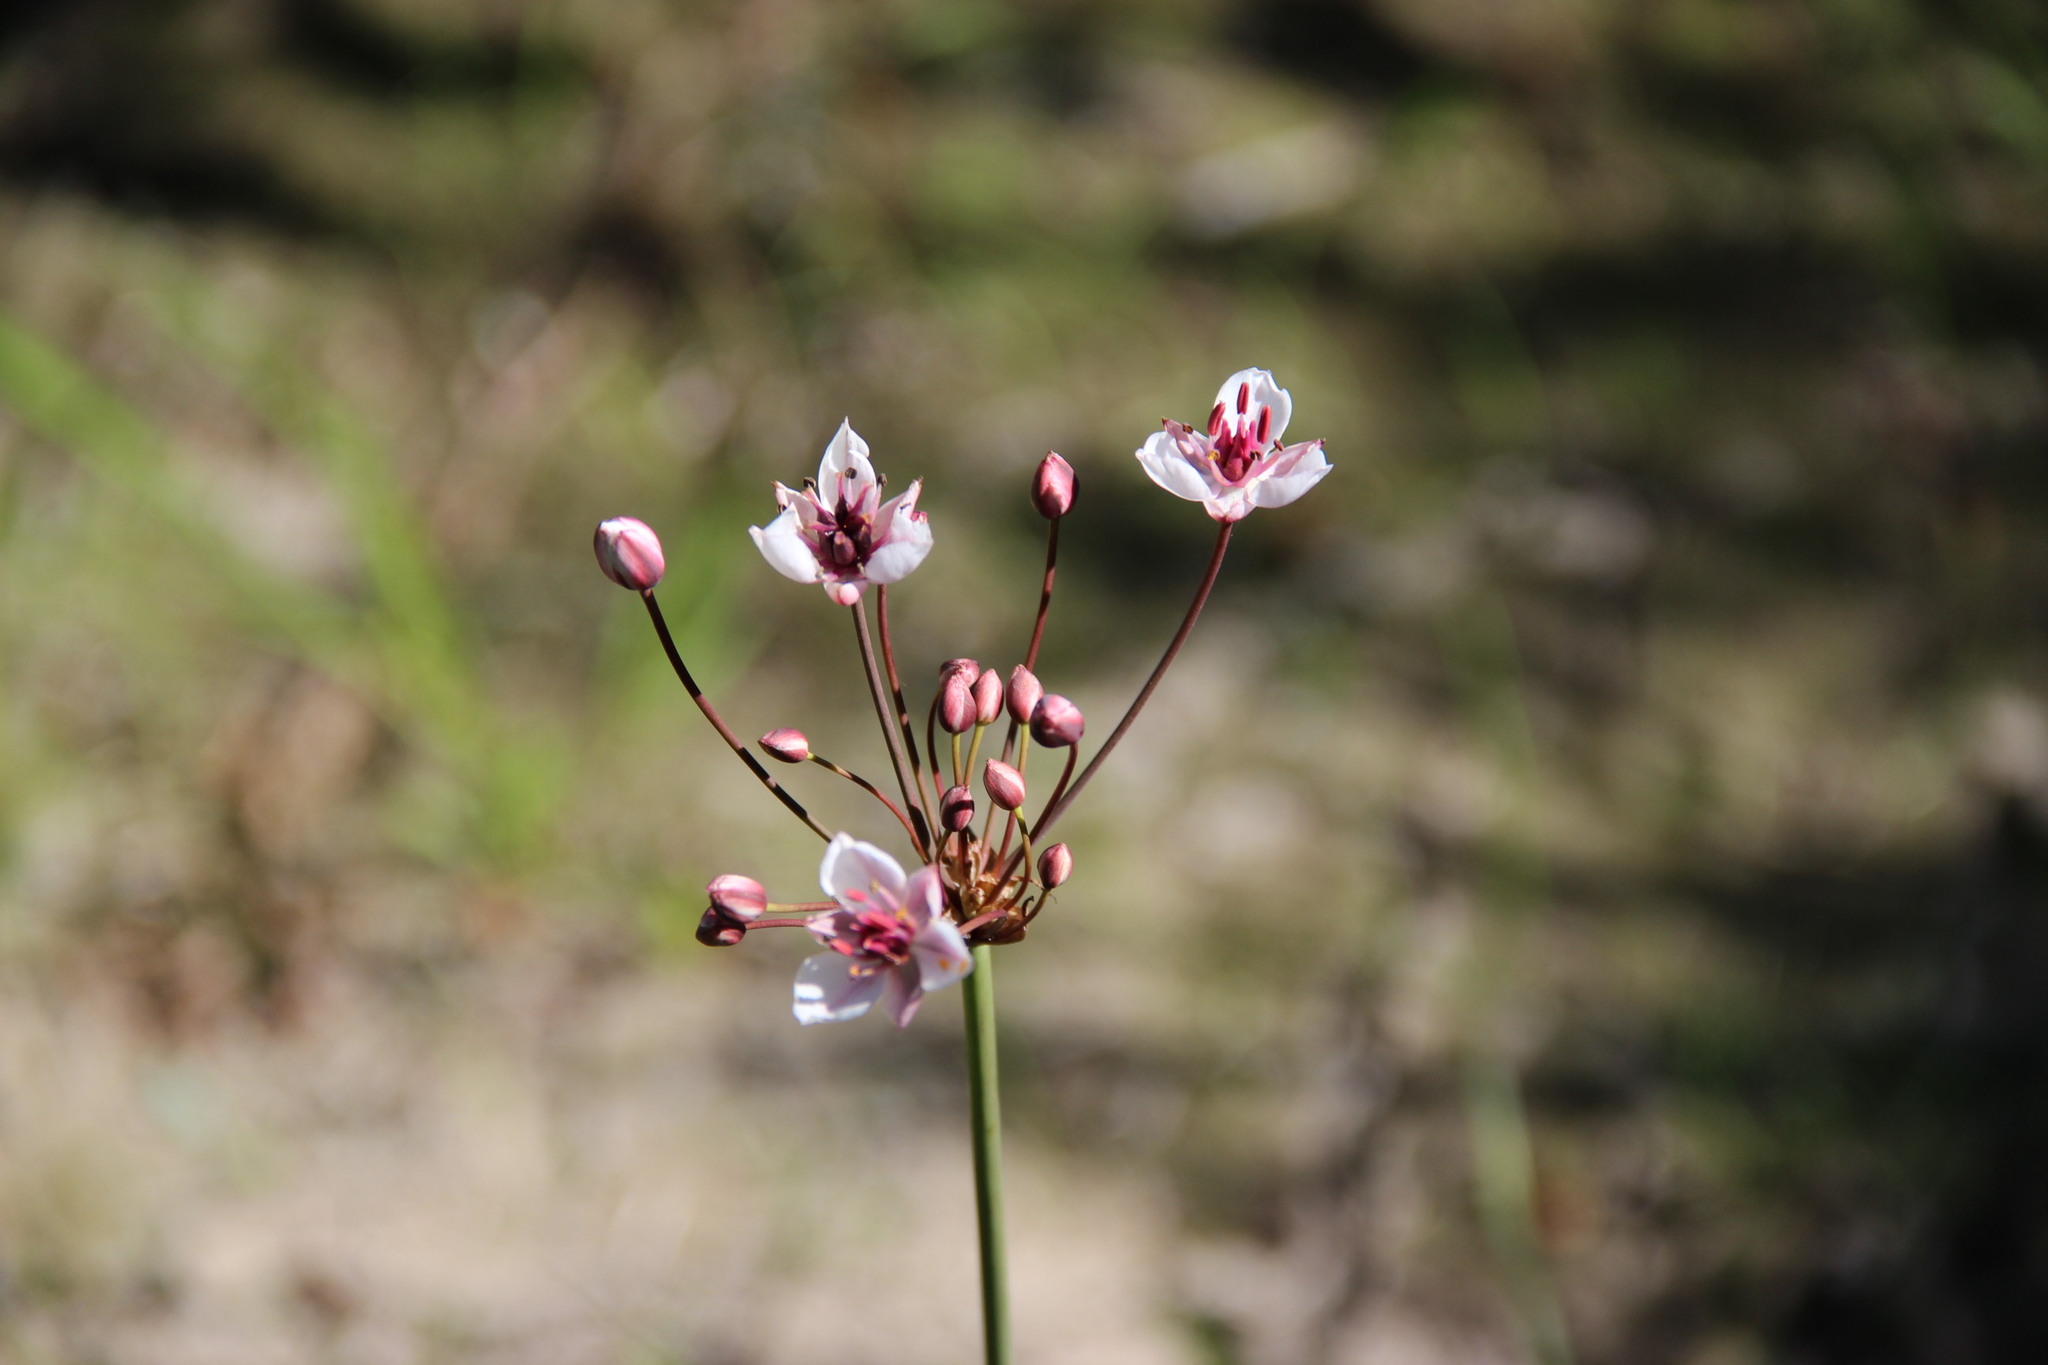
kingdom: Plantae
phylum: Tracheophyta
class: Liliopsida
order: Alismatales
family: Butomaceae
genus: Butomus
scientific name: Butomus umbellatus
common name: Flowering-rush
